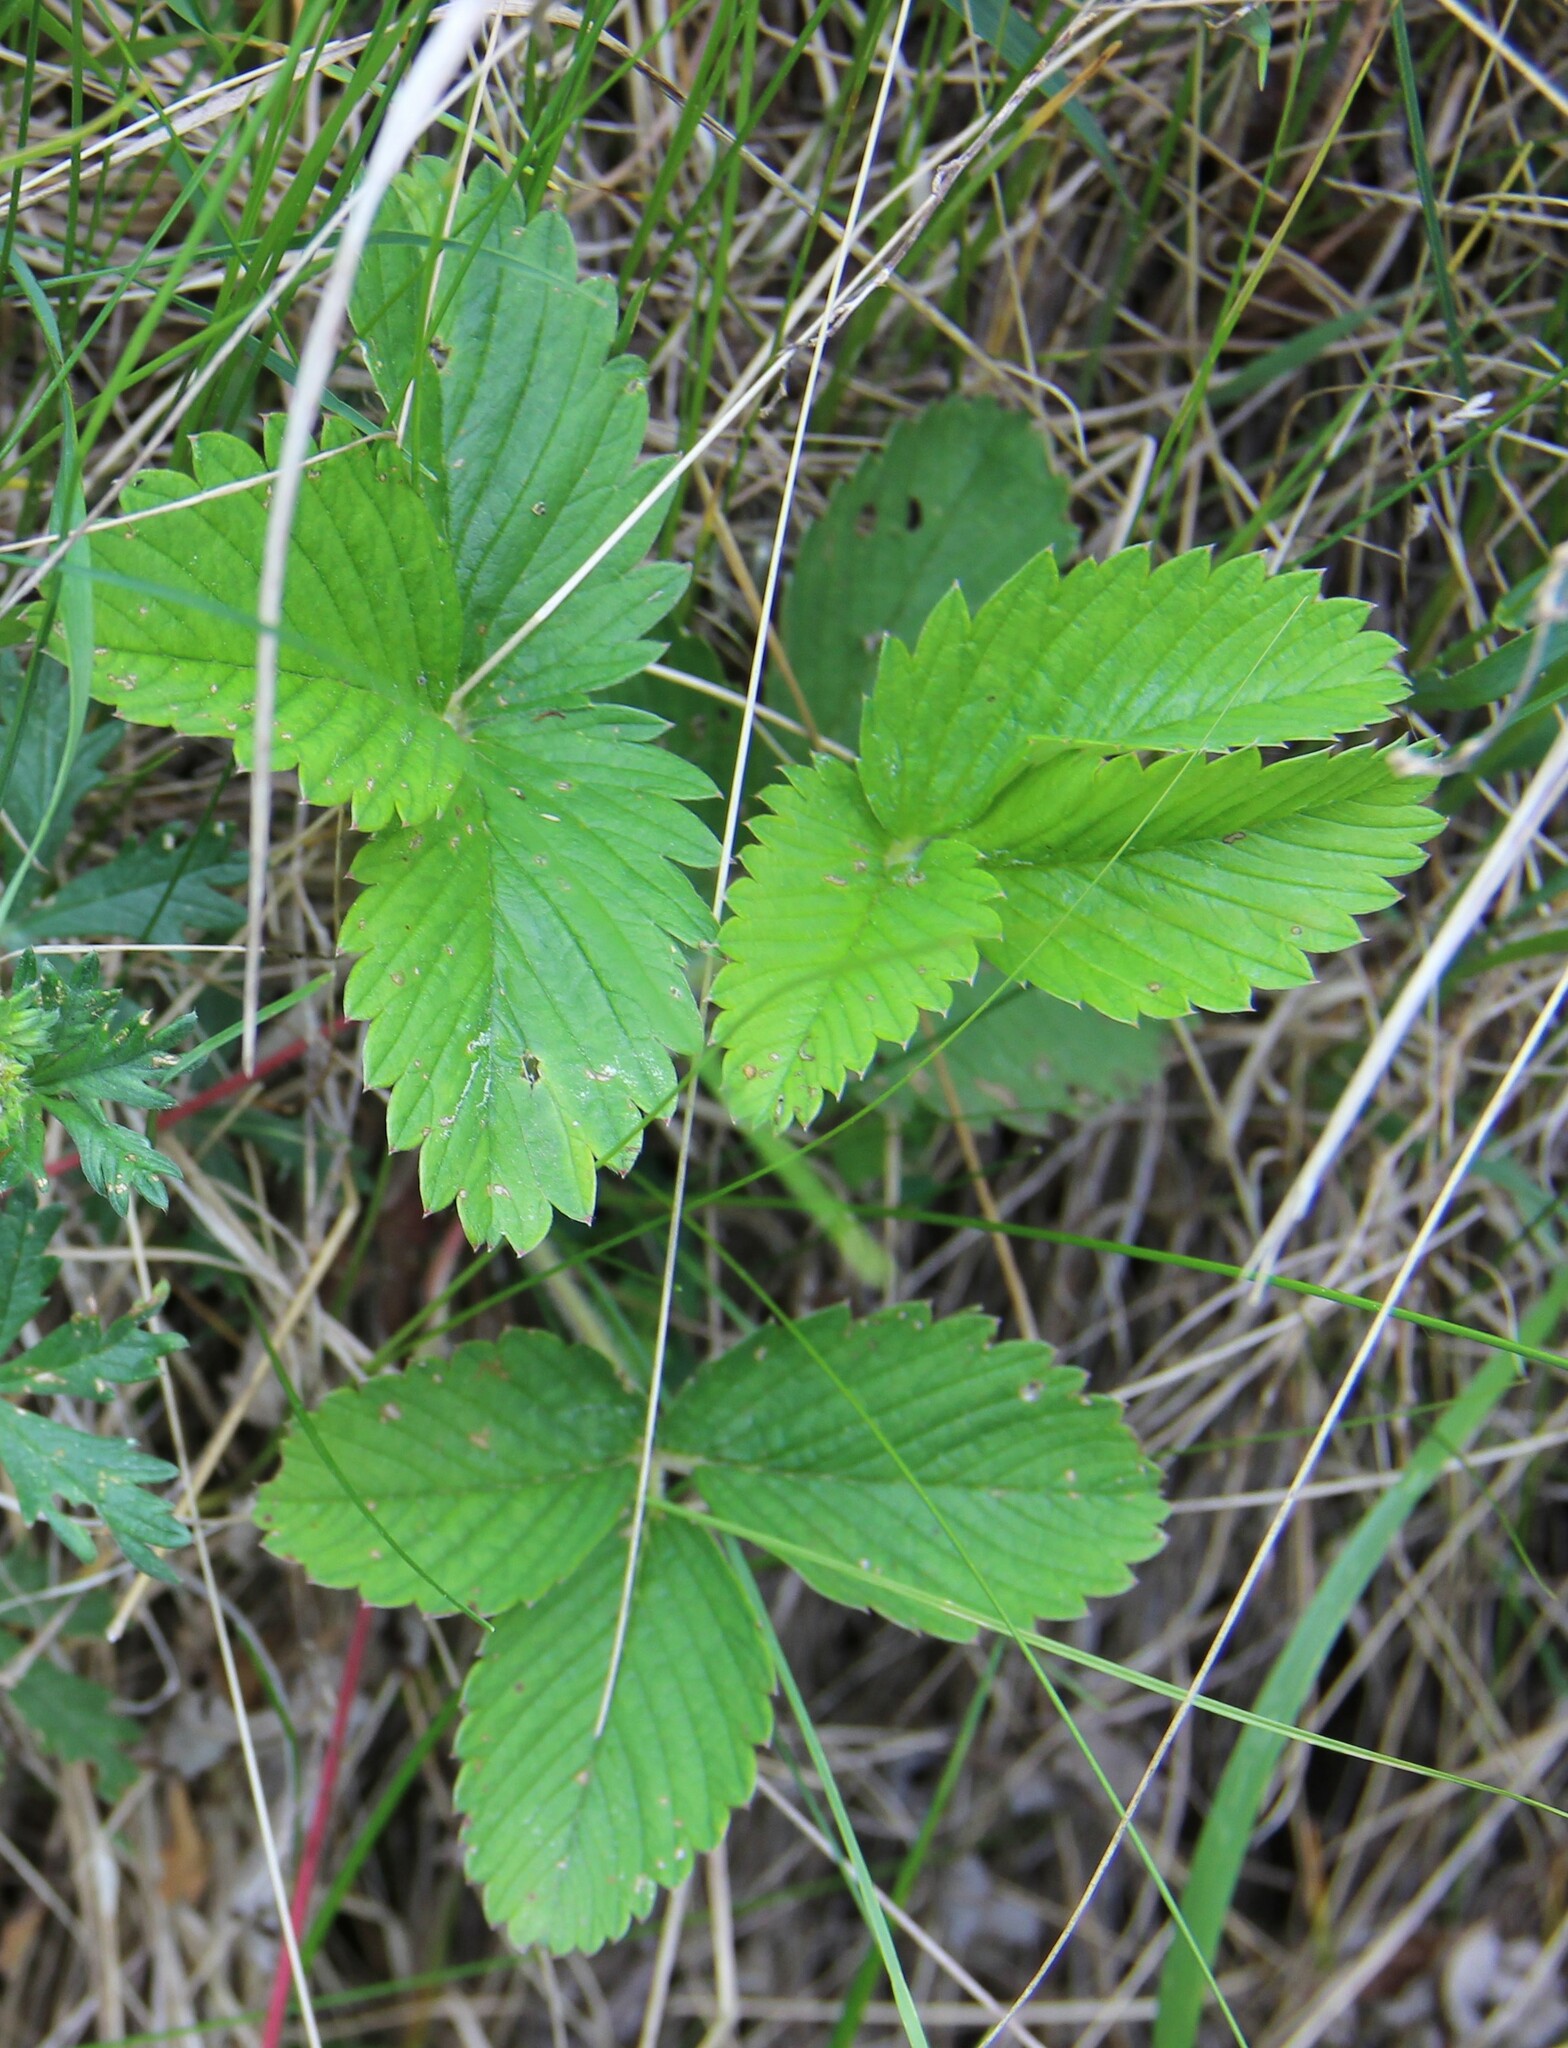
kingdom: Plantae
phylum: Tracheophyta
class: Magnoliopsida
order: Rosales
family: Rosaceae
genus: Fragaria
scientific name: Fragaria viridis
